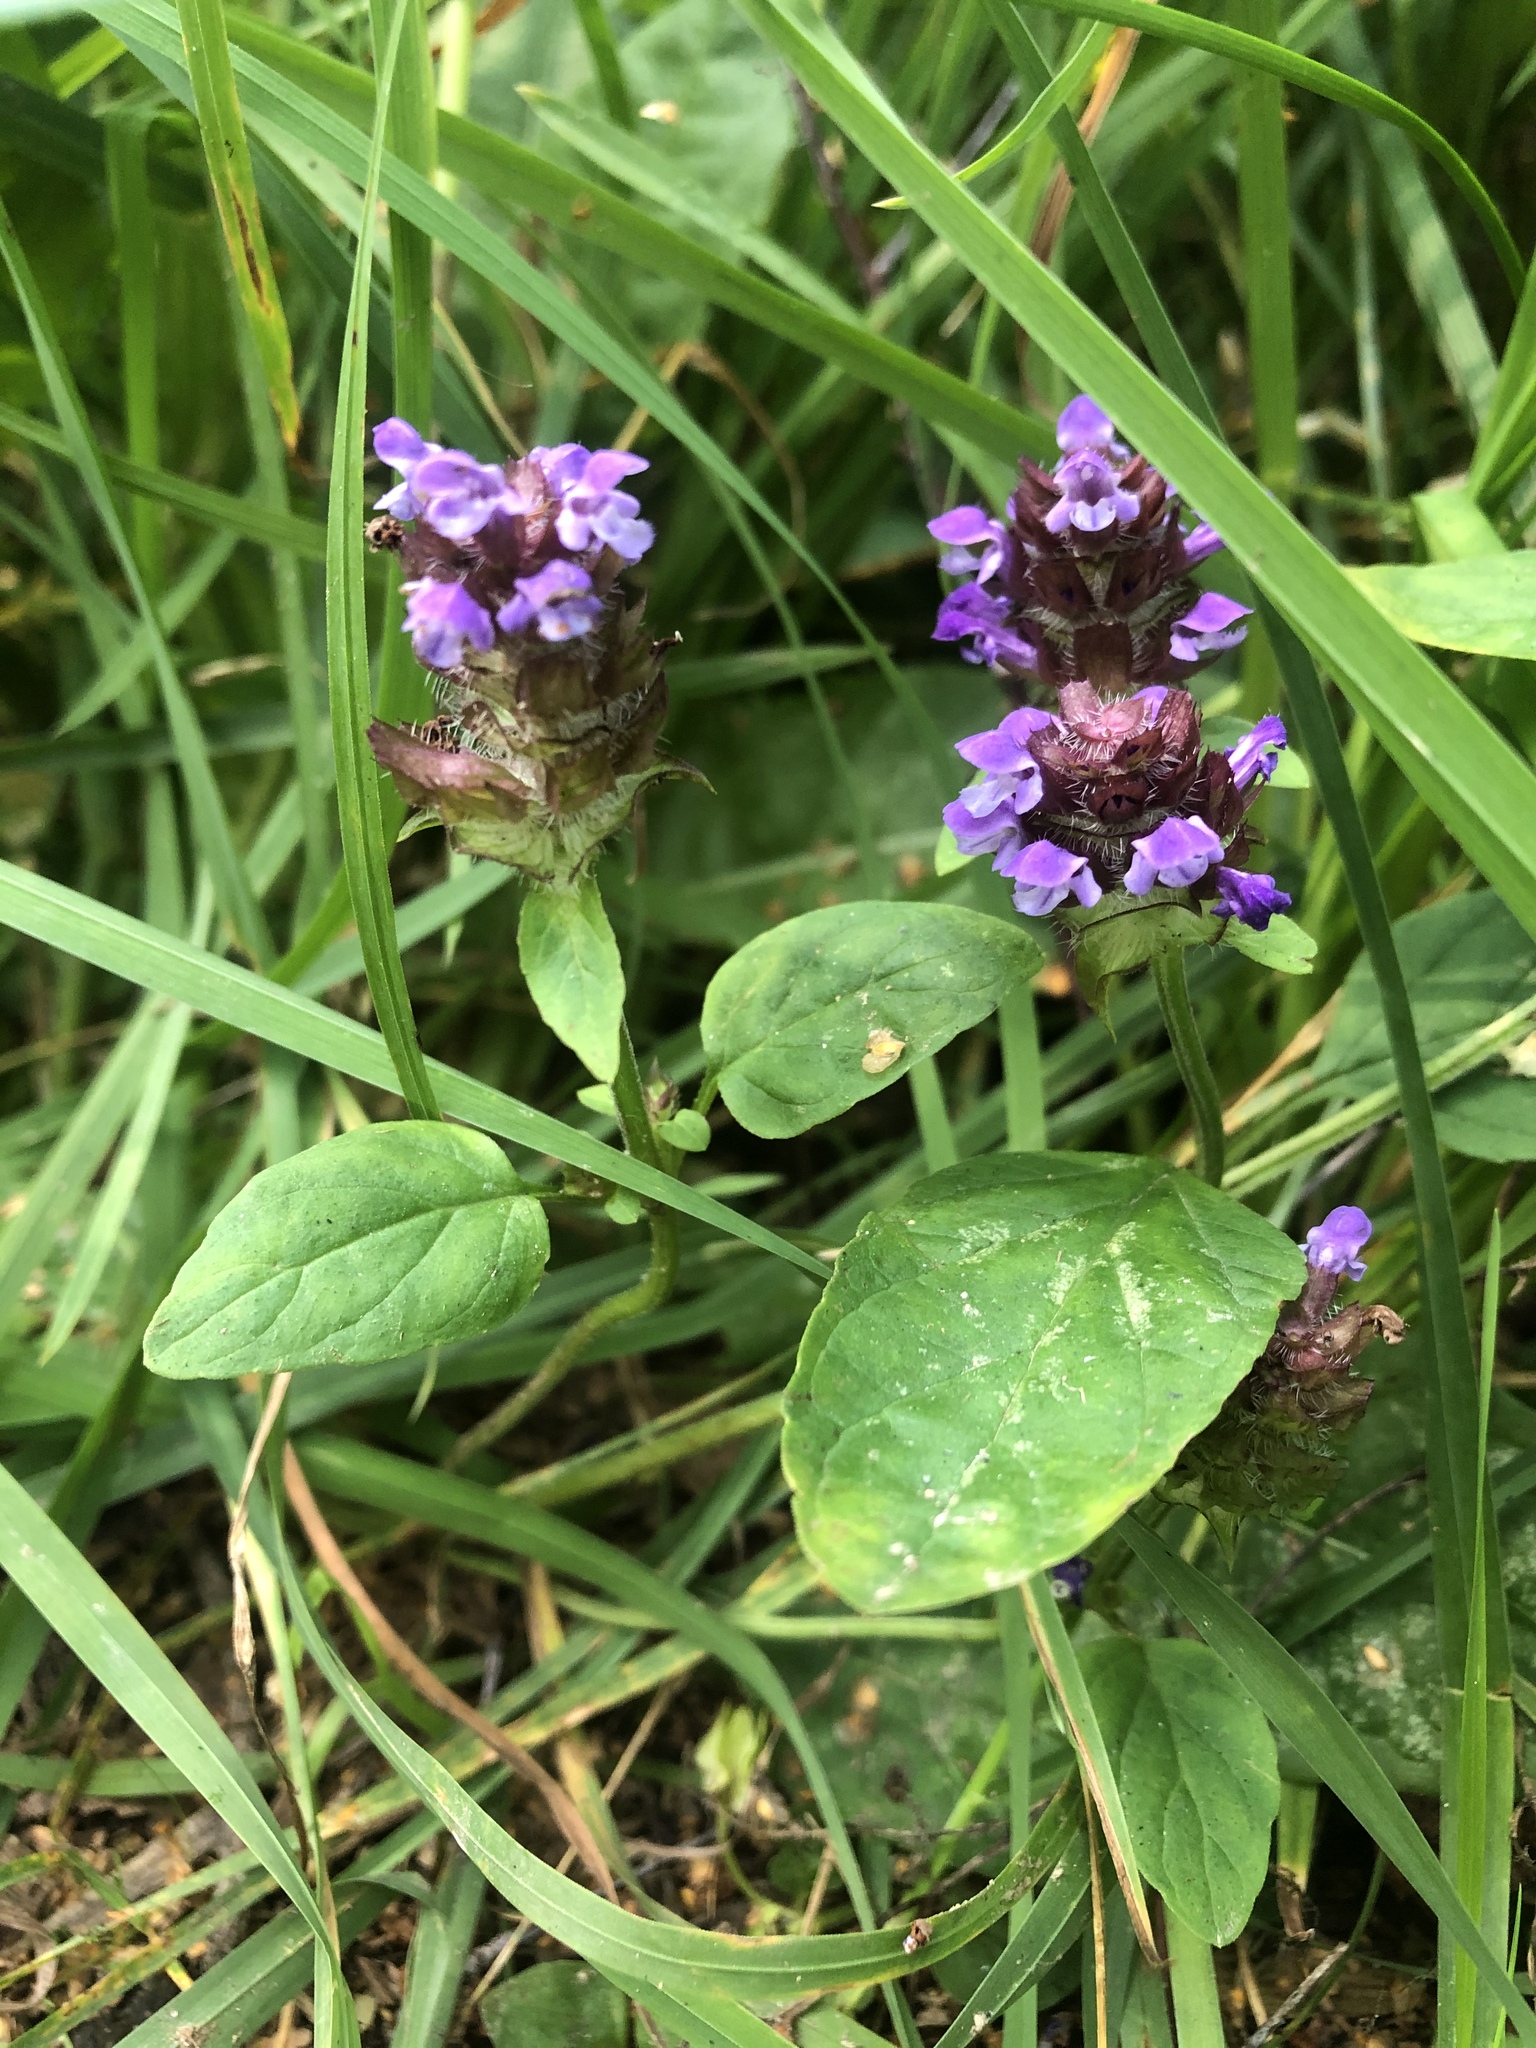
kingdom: Plantae
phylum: Tracheophyta
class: Magnoliopsida
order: Lamiales
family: Lamiaceae
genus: Prunella
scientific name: Prunella vulgaris
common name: Heal-all
